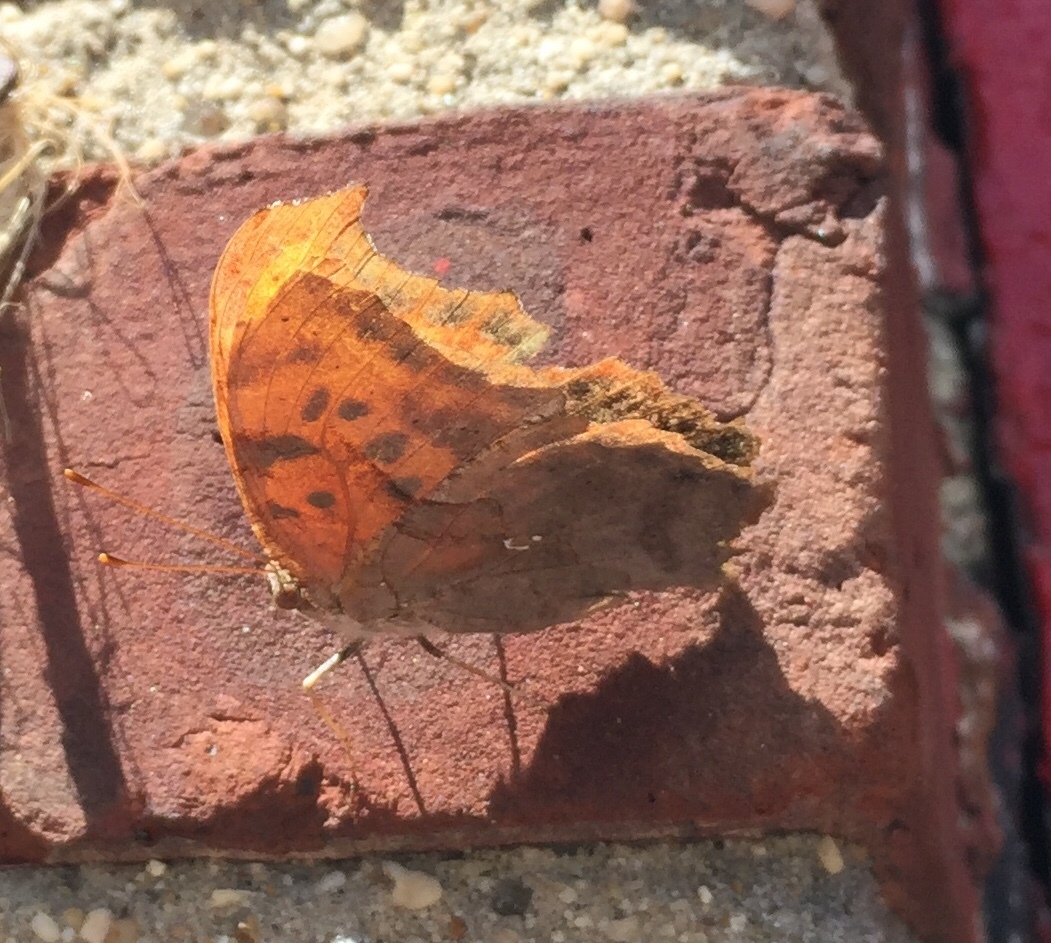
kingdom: Animalia
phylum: Arthropoda
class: Insecta
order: Lepidoptera
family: Nymphalidae
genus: Polygonia
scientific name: Polygonia interrogationis
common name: Question mark
